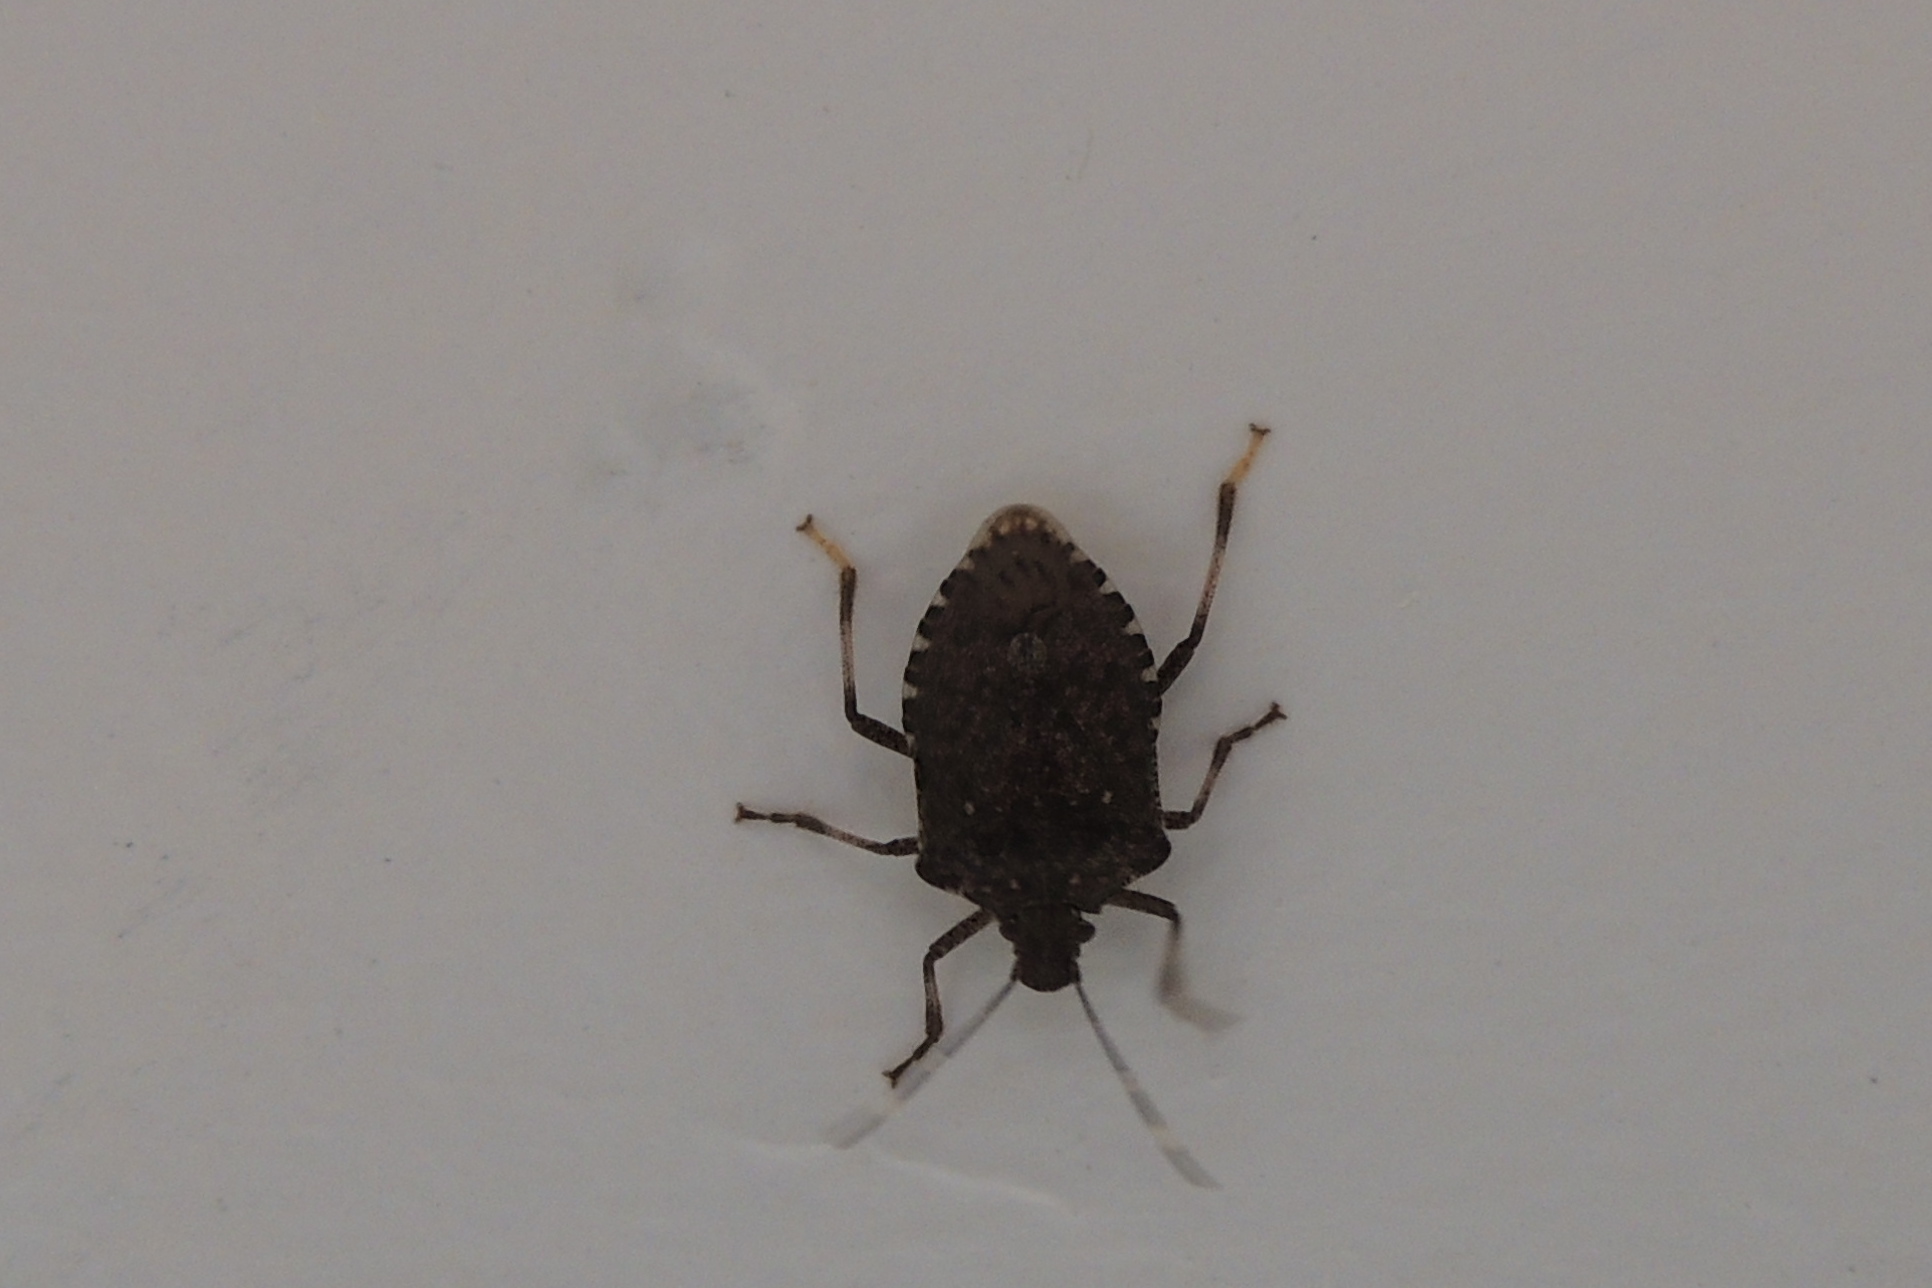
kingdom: Animalia
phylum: Arthropoda
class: Insecta
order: Hemiptera
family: Pentatomidae
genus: Halyomorpha
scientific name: Halyomorpha halys
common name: Brown marmorated stink bug
